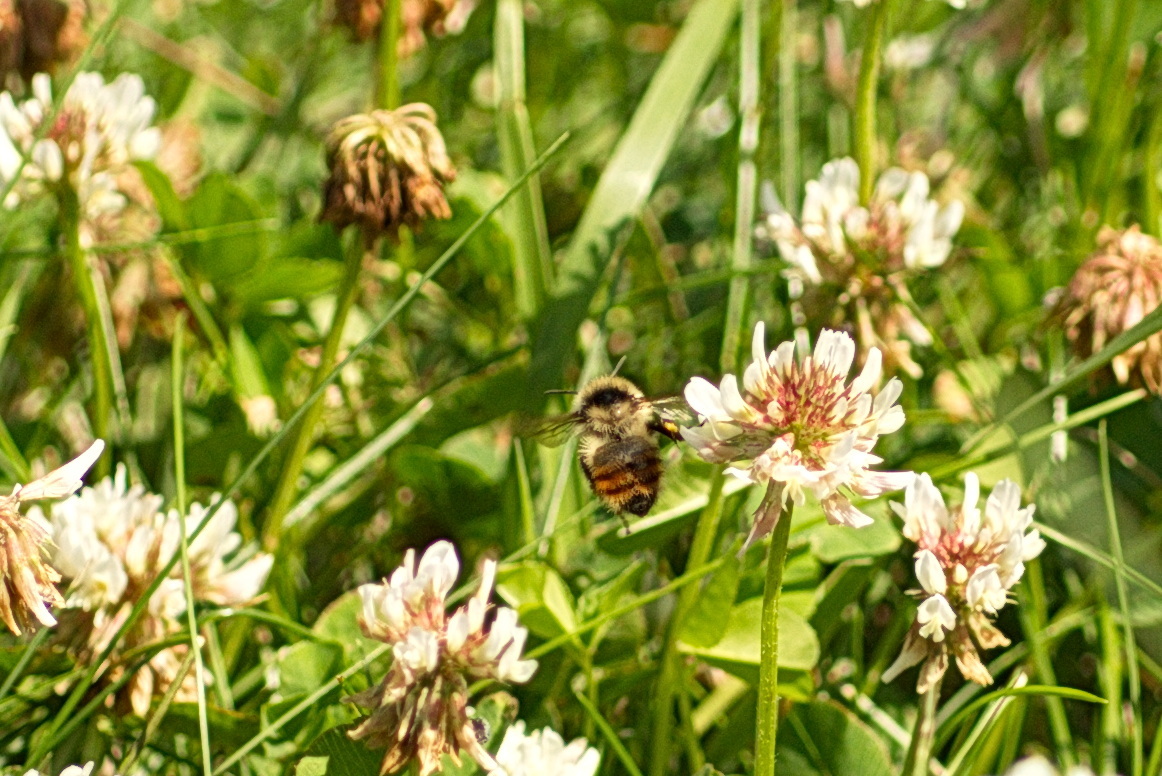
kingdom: Animalia
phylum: Arthropoda
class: Insecta
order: Hymenoptera
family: Apidae
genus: Bombus
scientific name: Bombus rufocinctus
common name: Red-belted bumble bee
